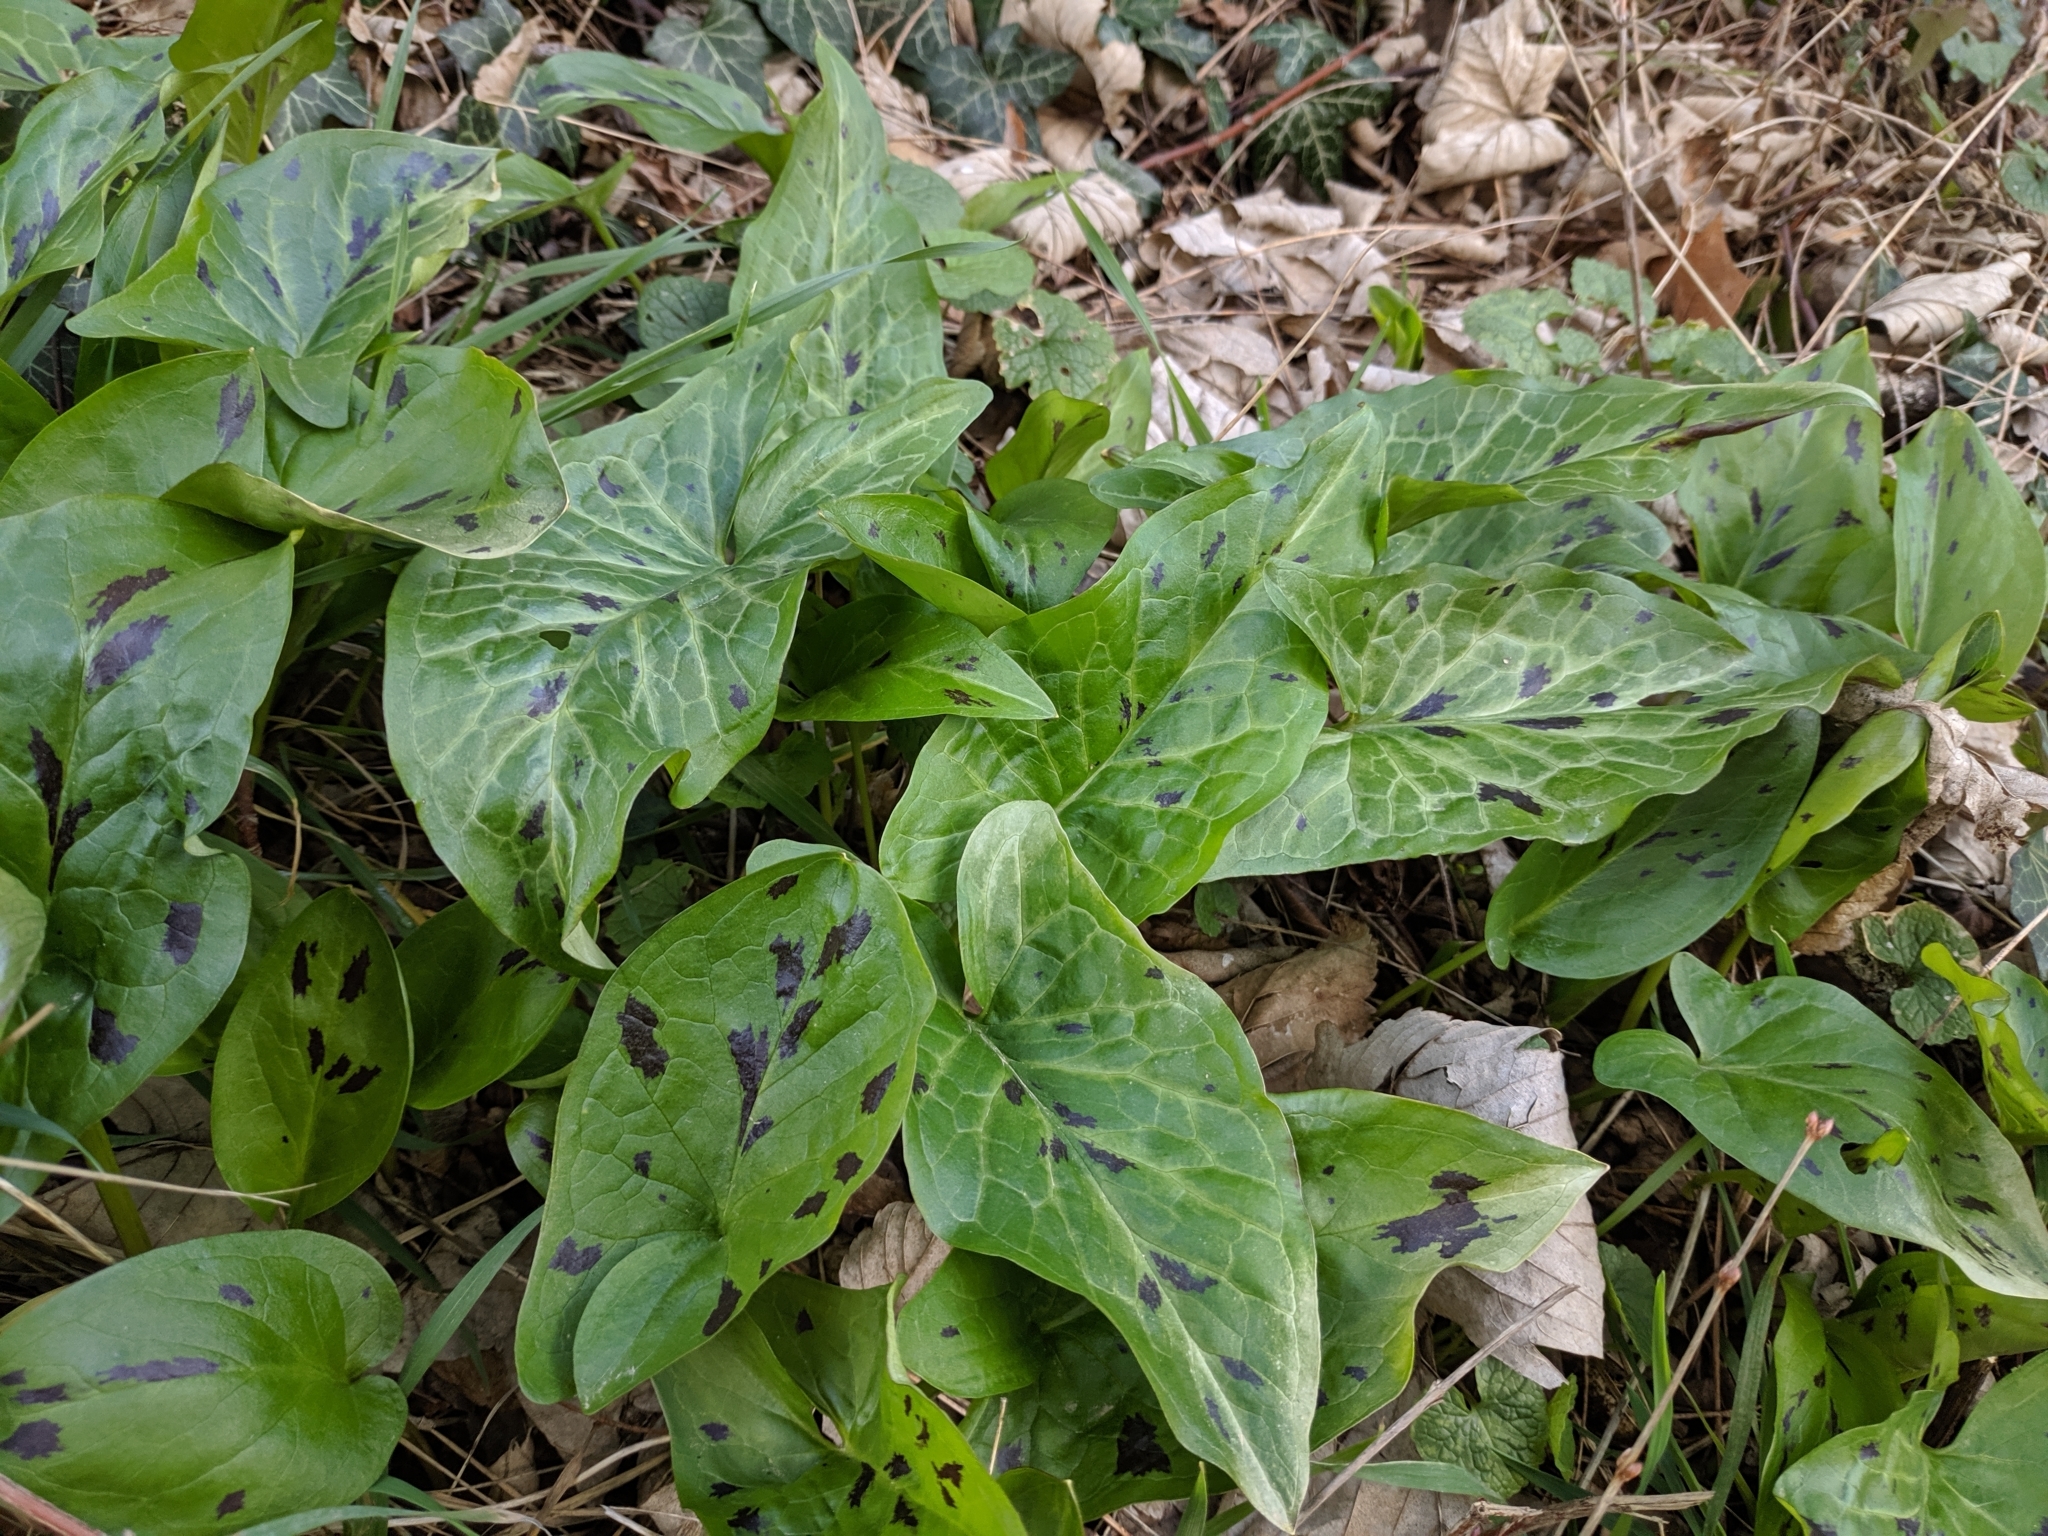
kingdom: Plantae
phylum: Tracheophyta
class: Liliopsida
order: Alismatales
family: Araceae
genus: Arum
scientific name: Arum maculatum
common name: Lords-and-ladies
